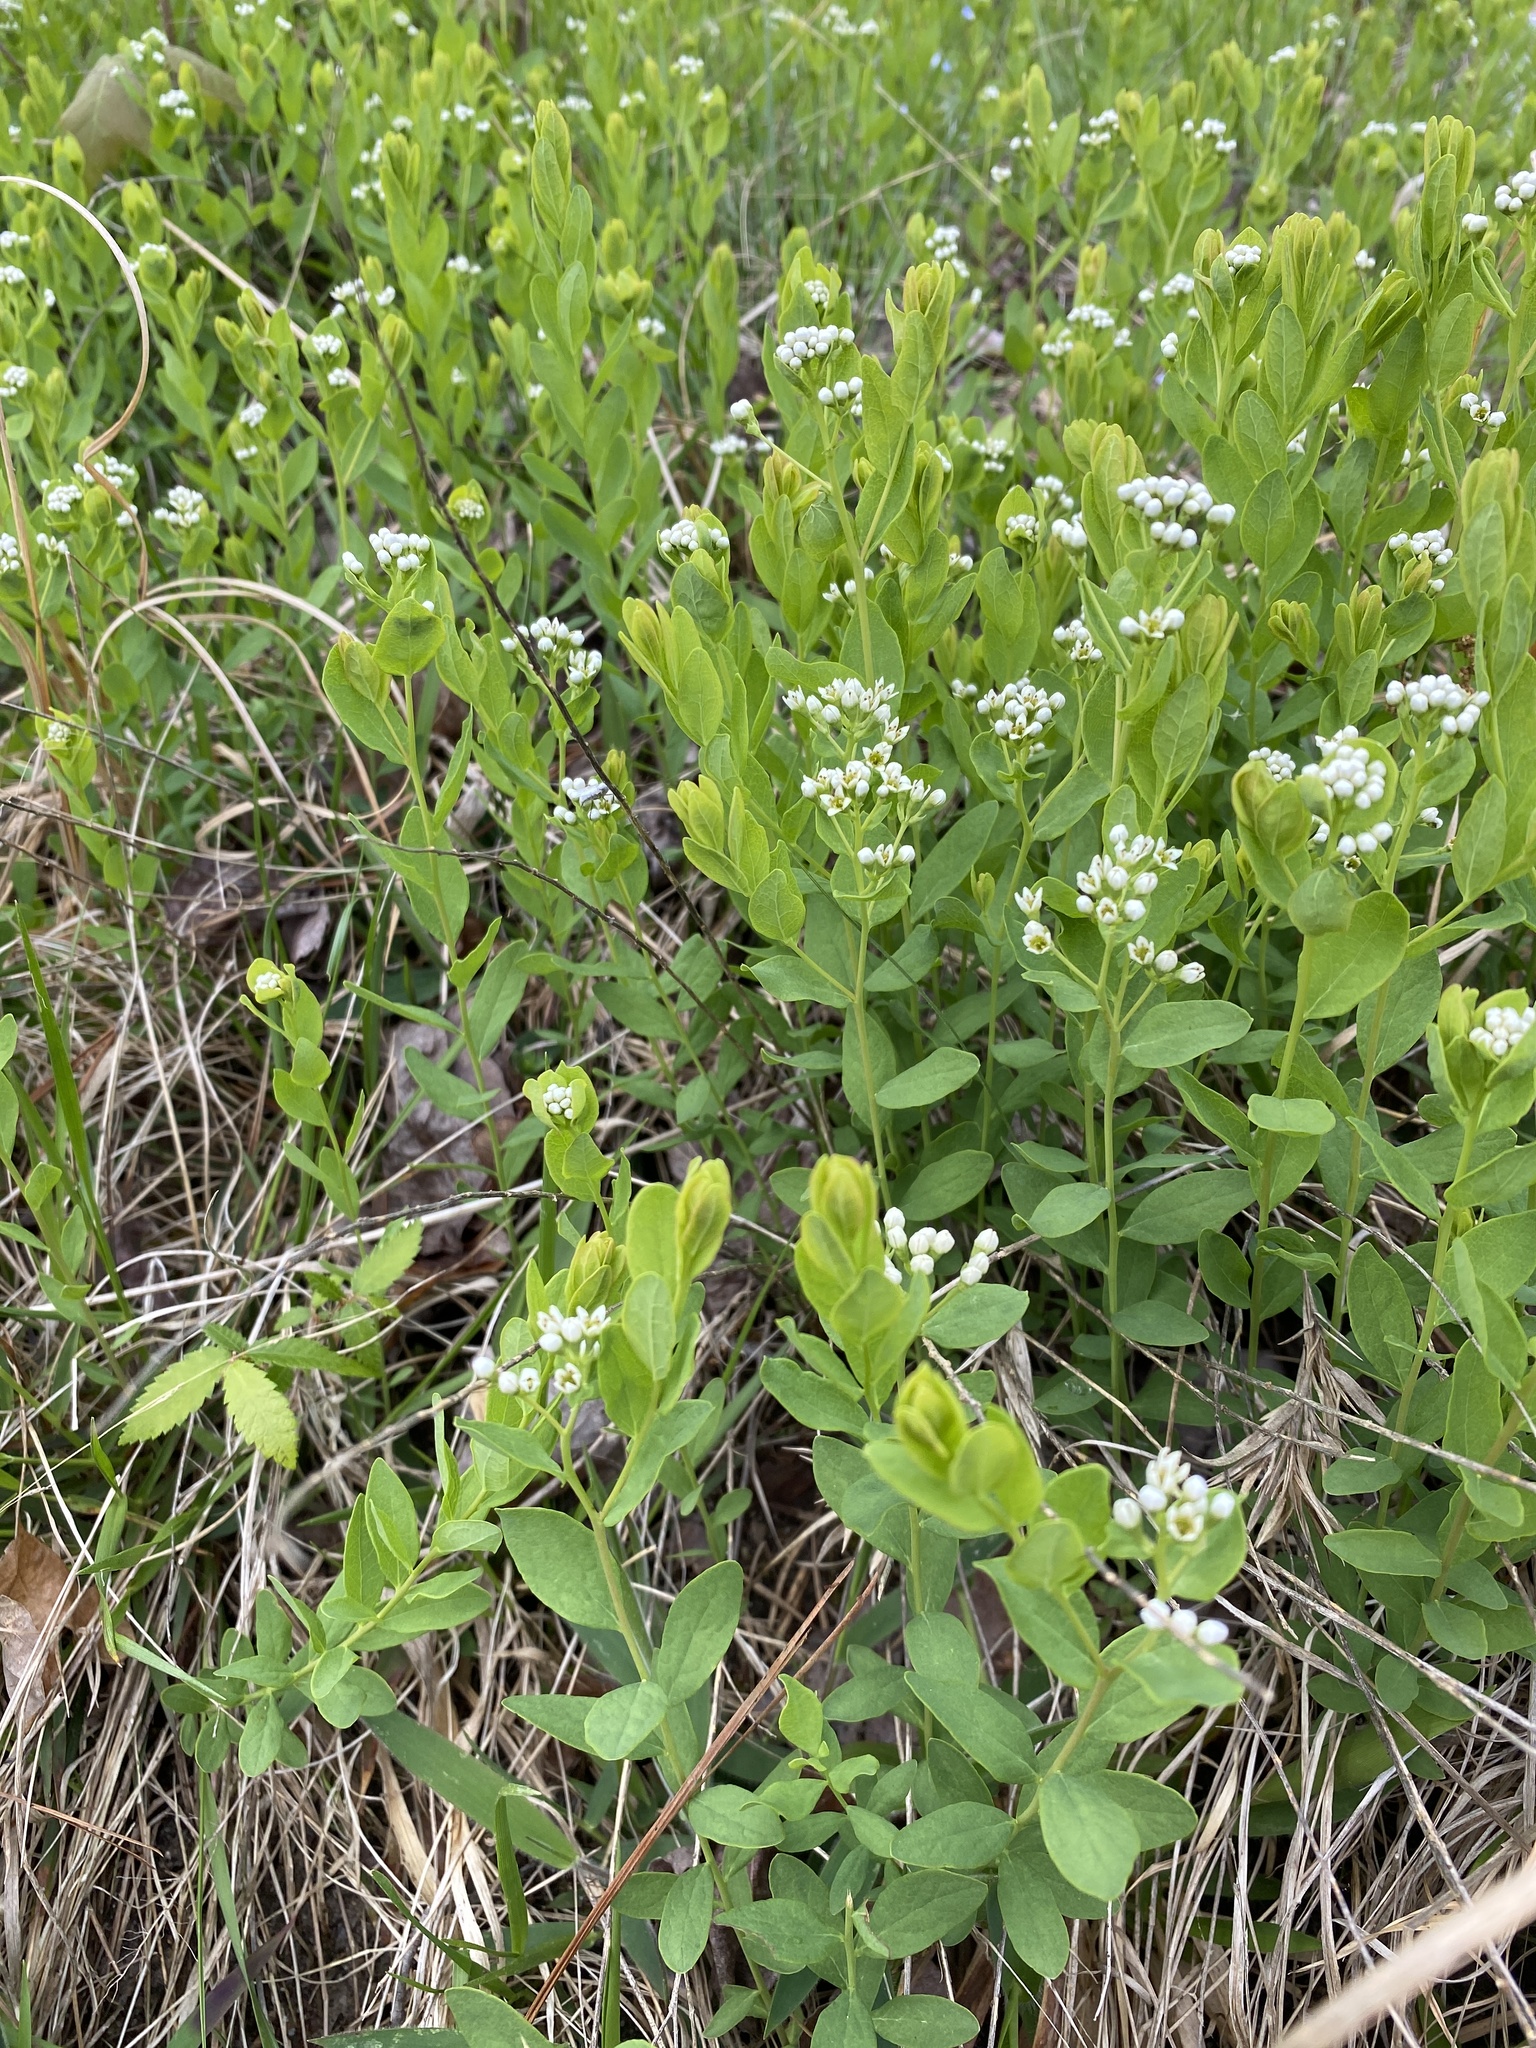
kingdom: Plantae
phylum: Tracheophyta
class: Magnoliopsida
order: Santalales
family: Comandraceae
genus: Comandra
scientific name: Comandra umbellata
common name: Bastard toadflax
